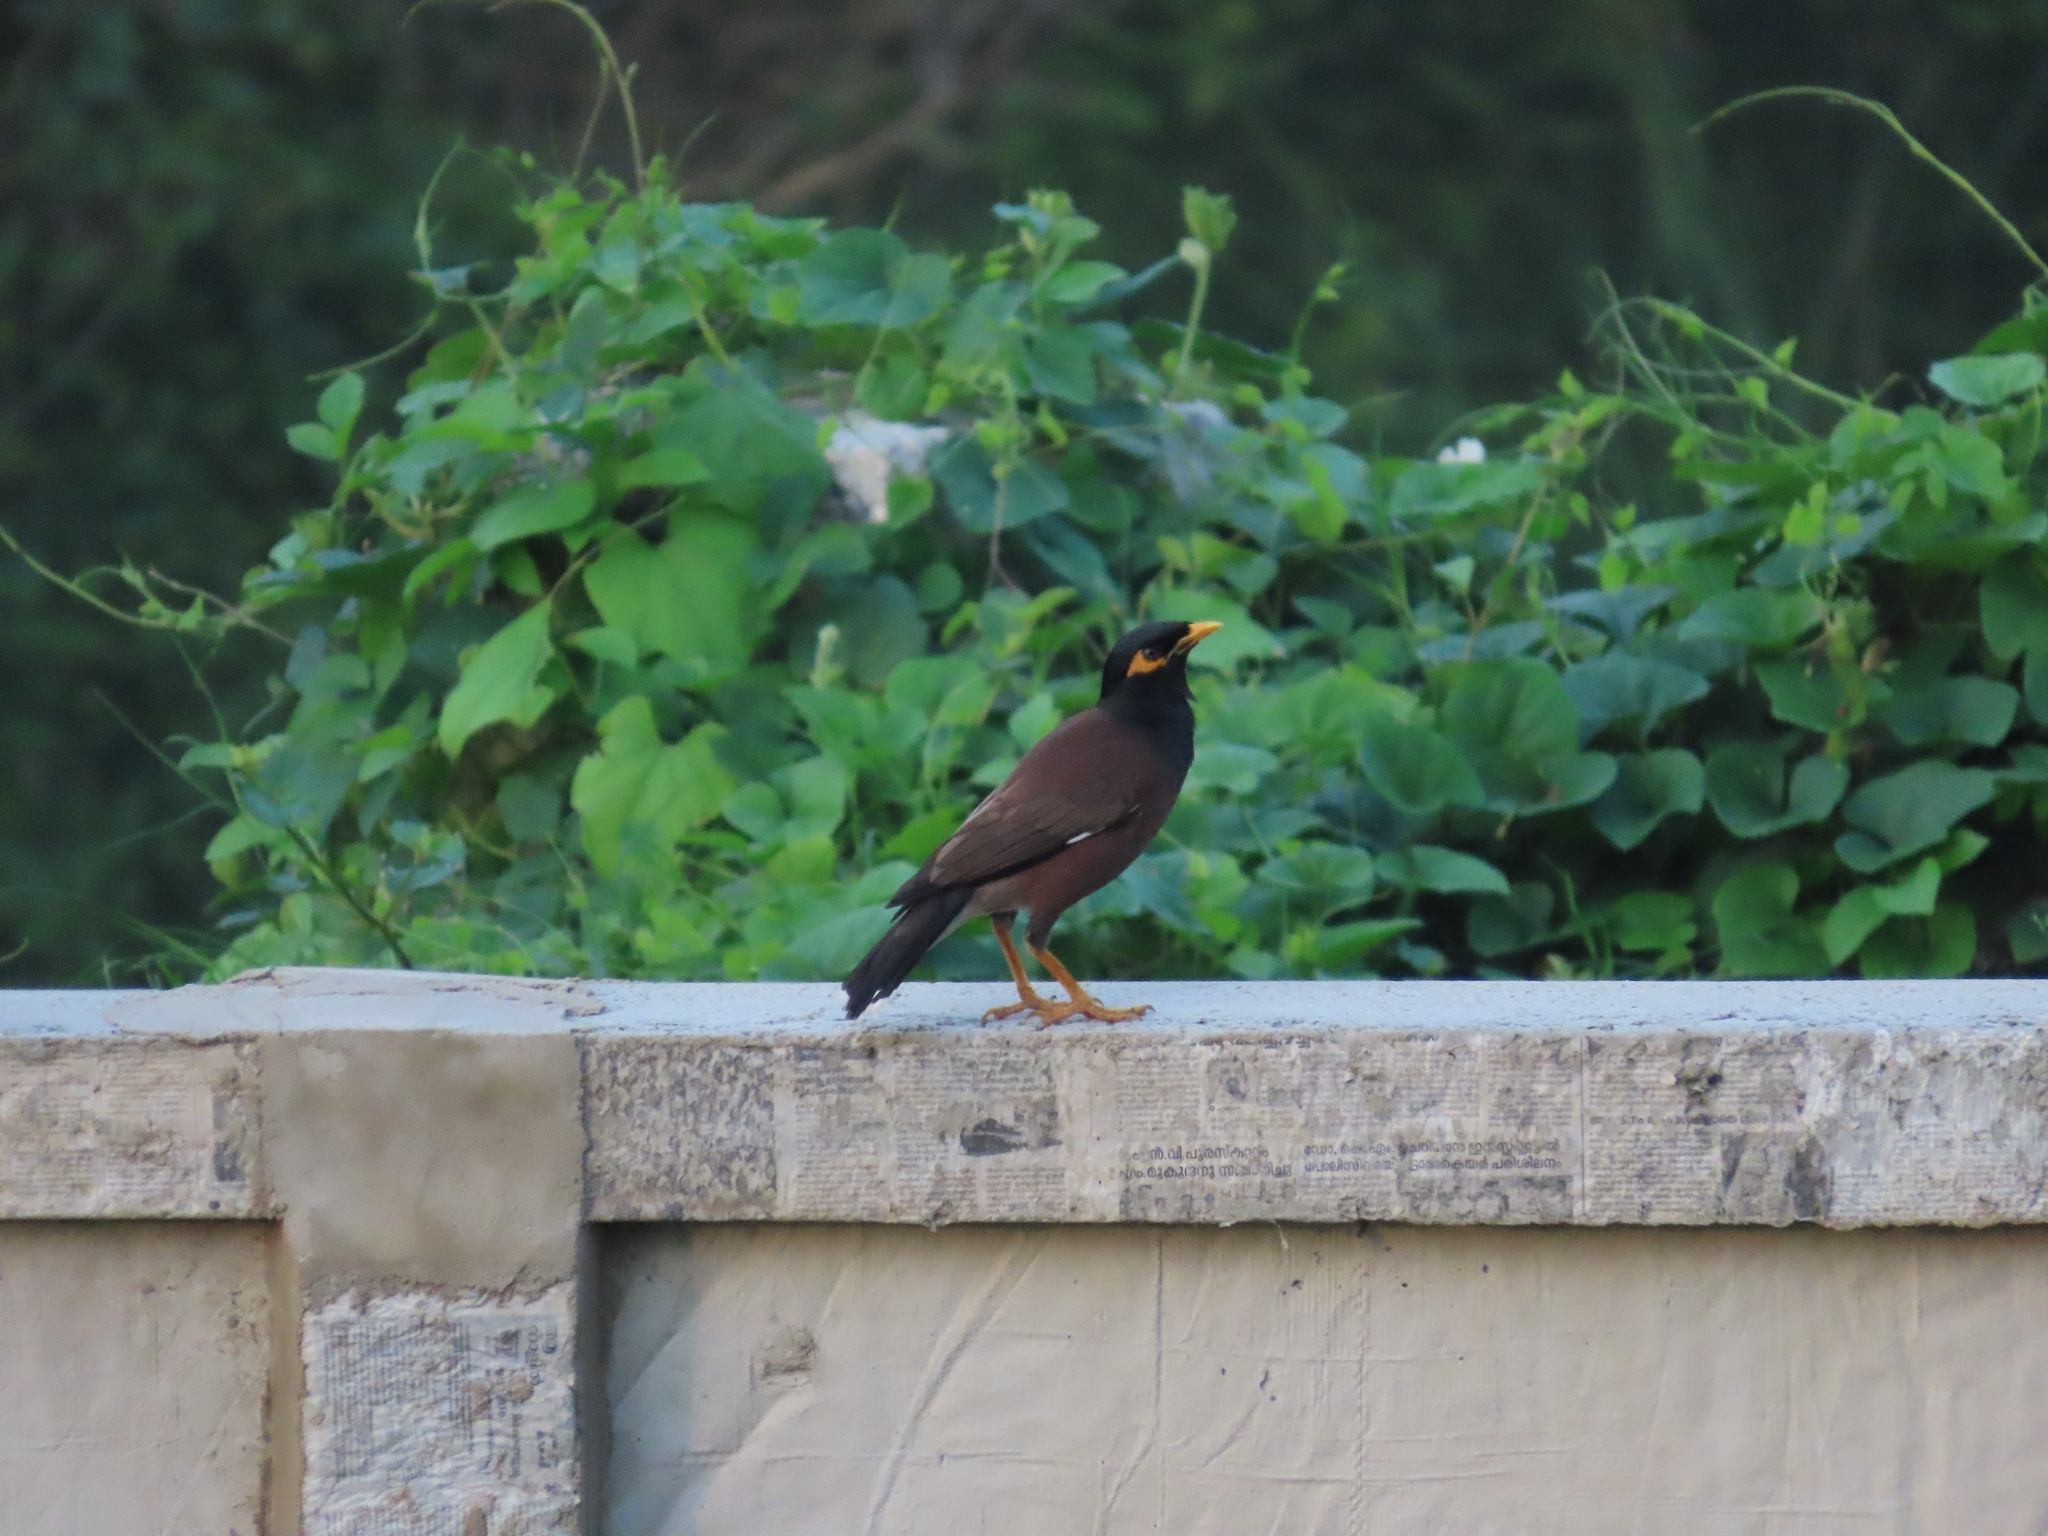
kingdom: Animalia
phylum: Chordata
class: Aves
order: Passeriformes
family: Sturnidae
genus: Acridotheres
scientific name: Acridotheres tristis
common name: Common myna
